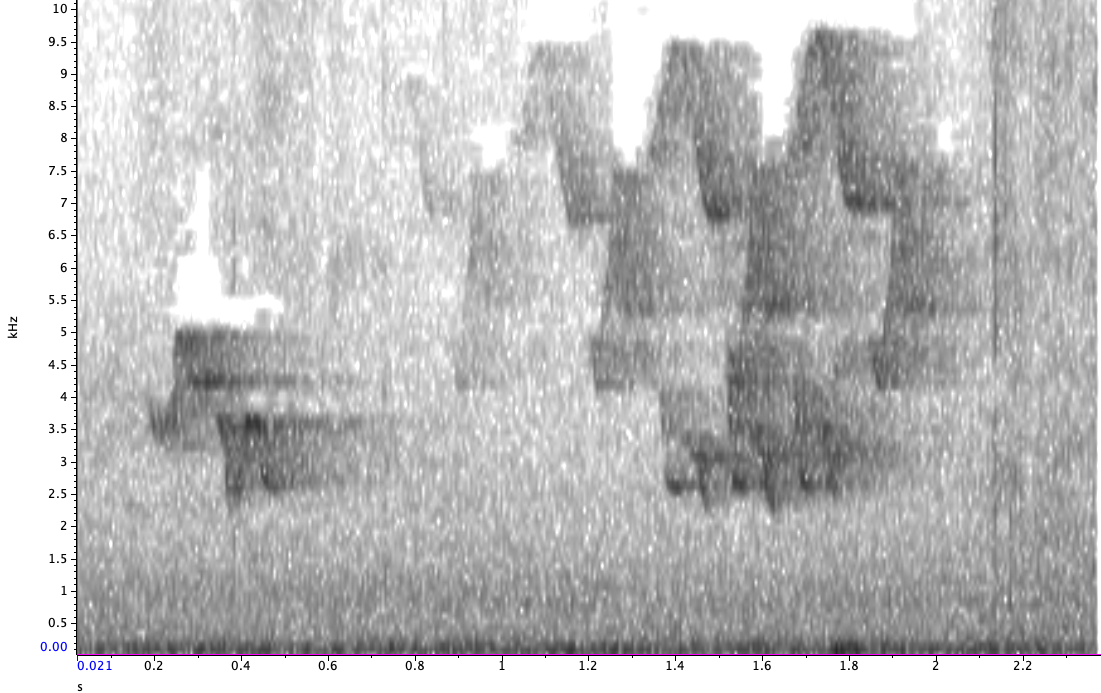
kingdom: Animalia
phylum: Chordata
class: Aves
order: Passeriformes
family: Parulidae
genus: Setophaga
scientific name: Setophaga ruticilla
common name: American redstart
